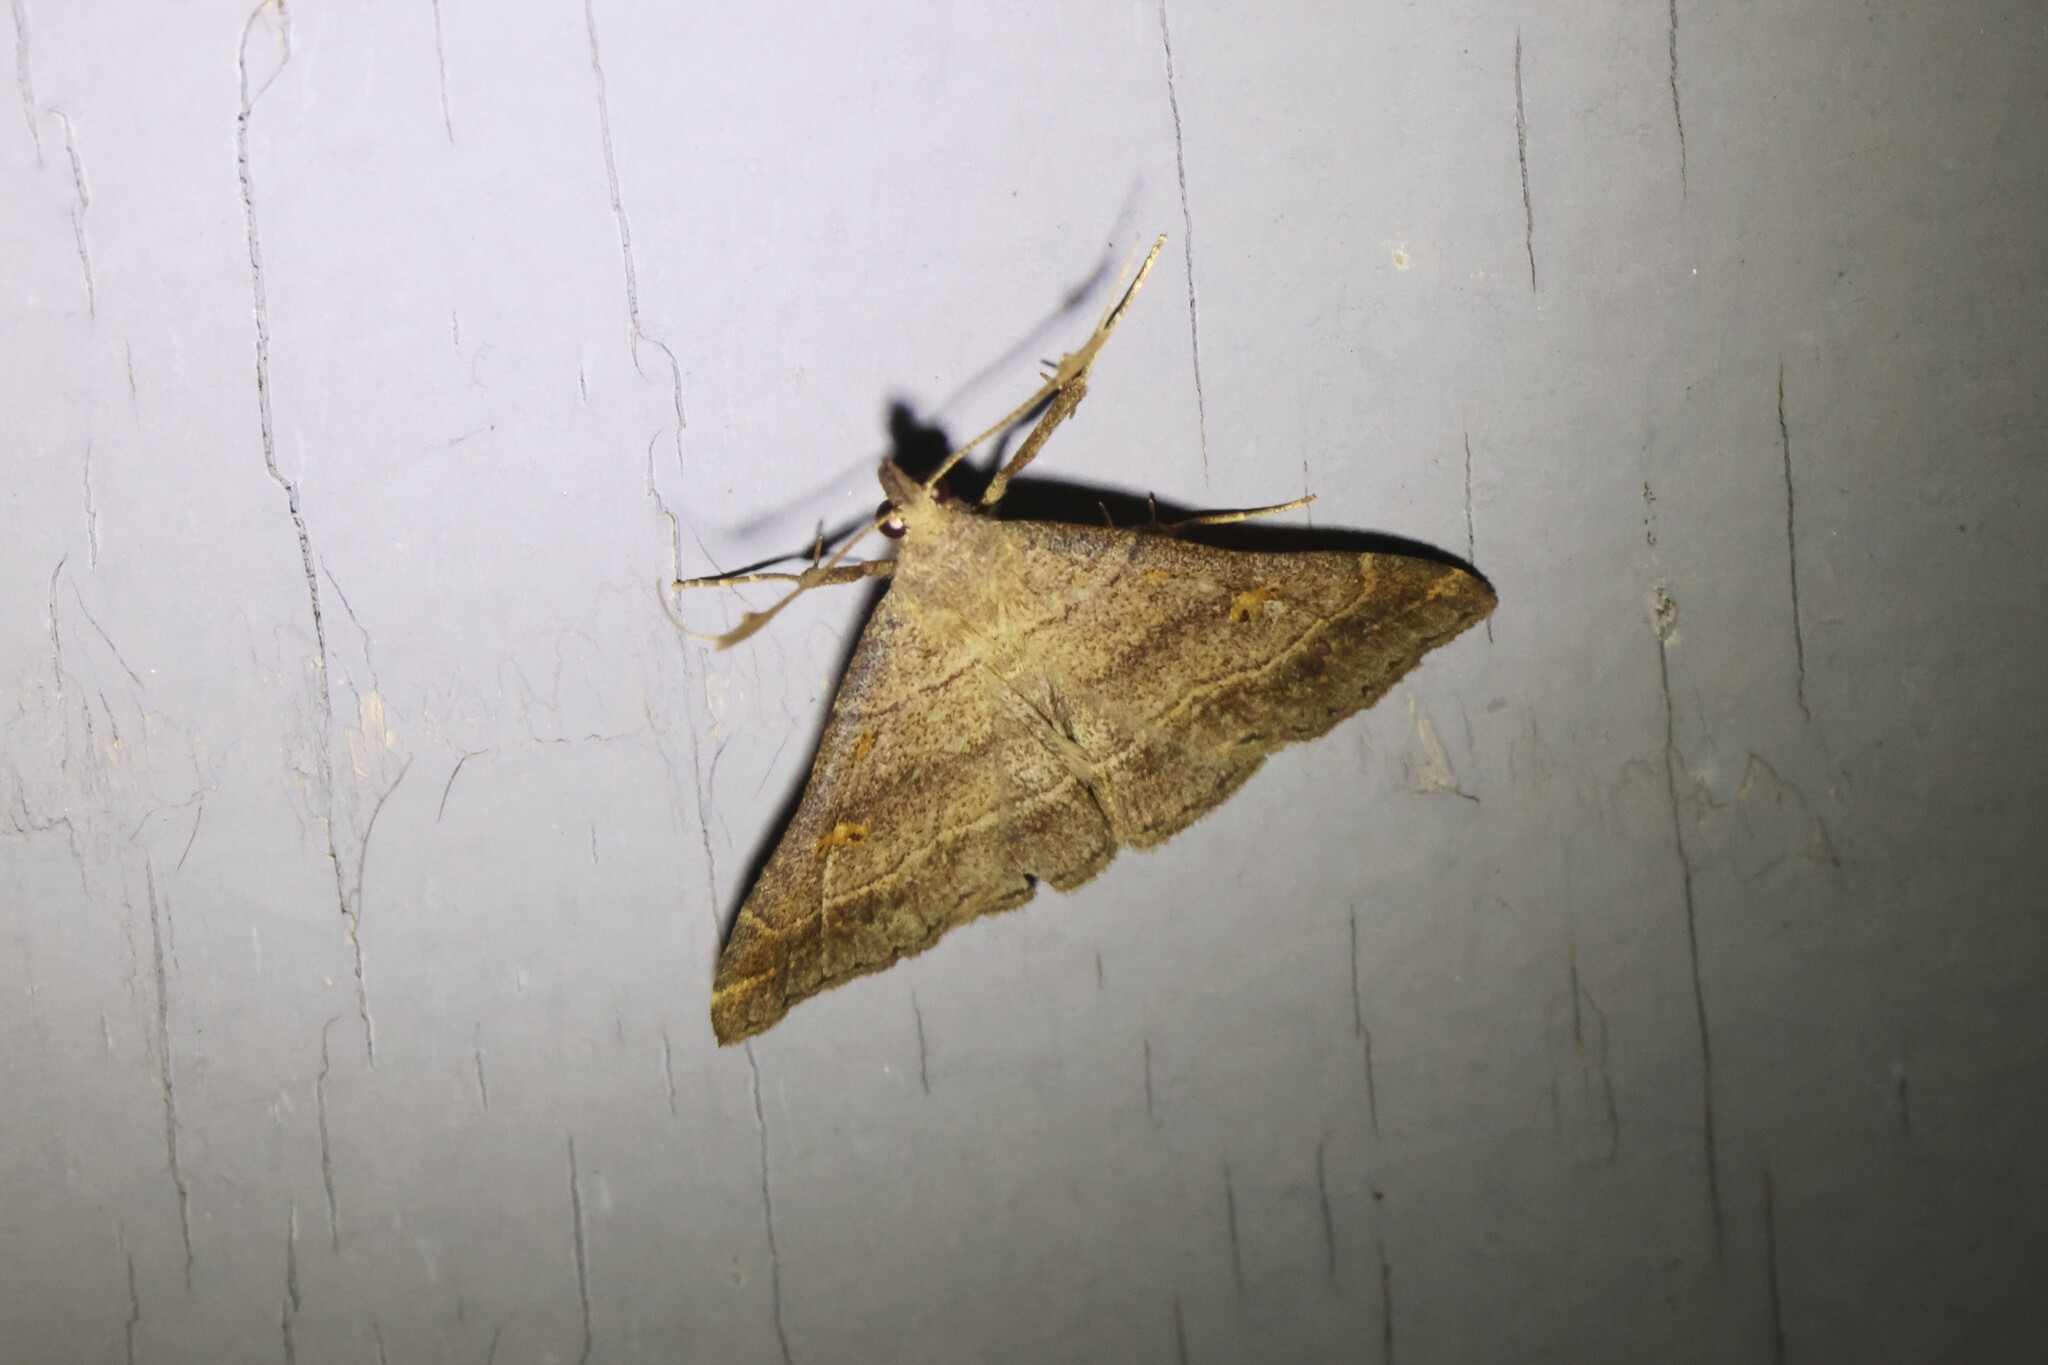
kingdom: Animalia
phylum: Arthropoda
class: Insecta
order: Lepidoptera
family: Erebidae
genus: Renia
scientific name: Renia flavipunctalis
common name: Yellow-spotted renia moth
